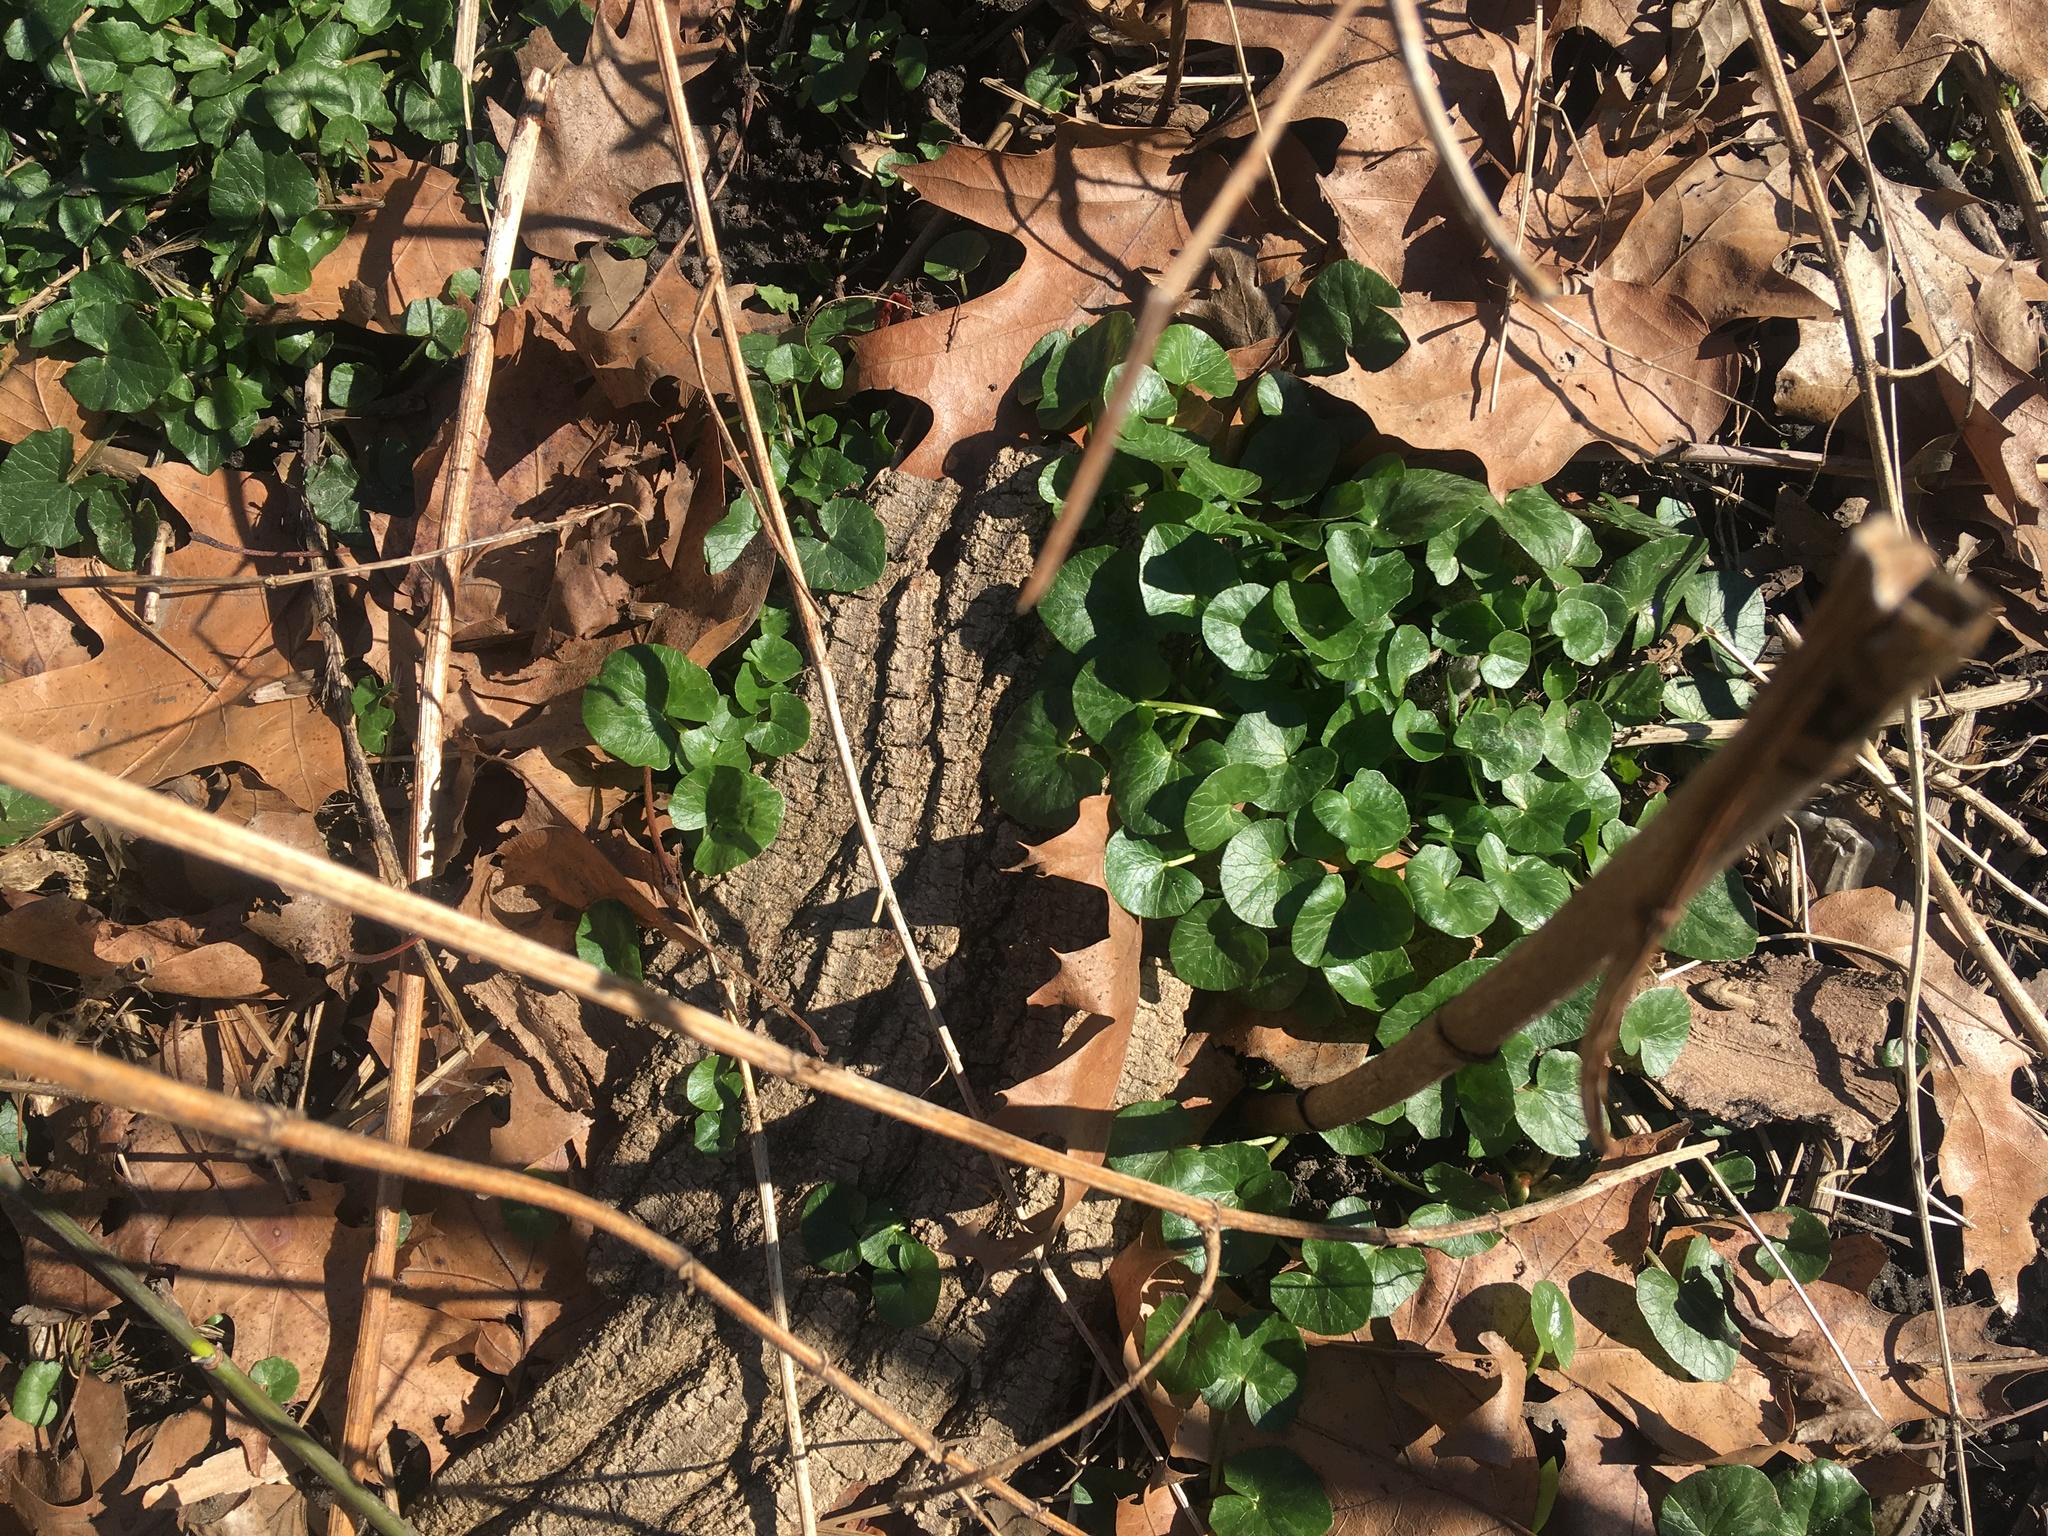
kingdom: Plantae
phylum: Tracheophyta
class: Magnoliopsida
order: Ranunculales
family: Ranunculaceae
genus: Ficaria
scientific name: Ficaria verna
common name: Lesser celandine
